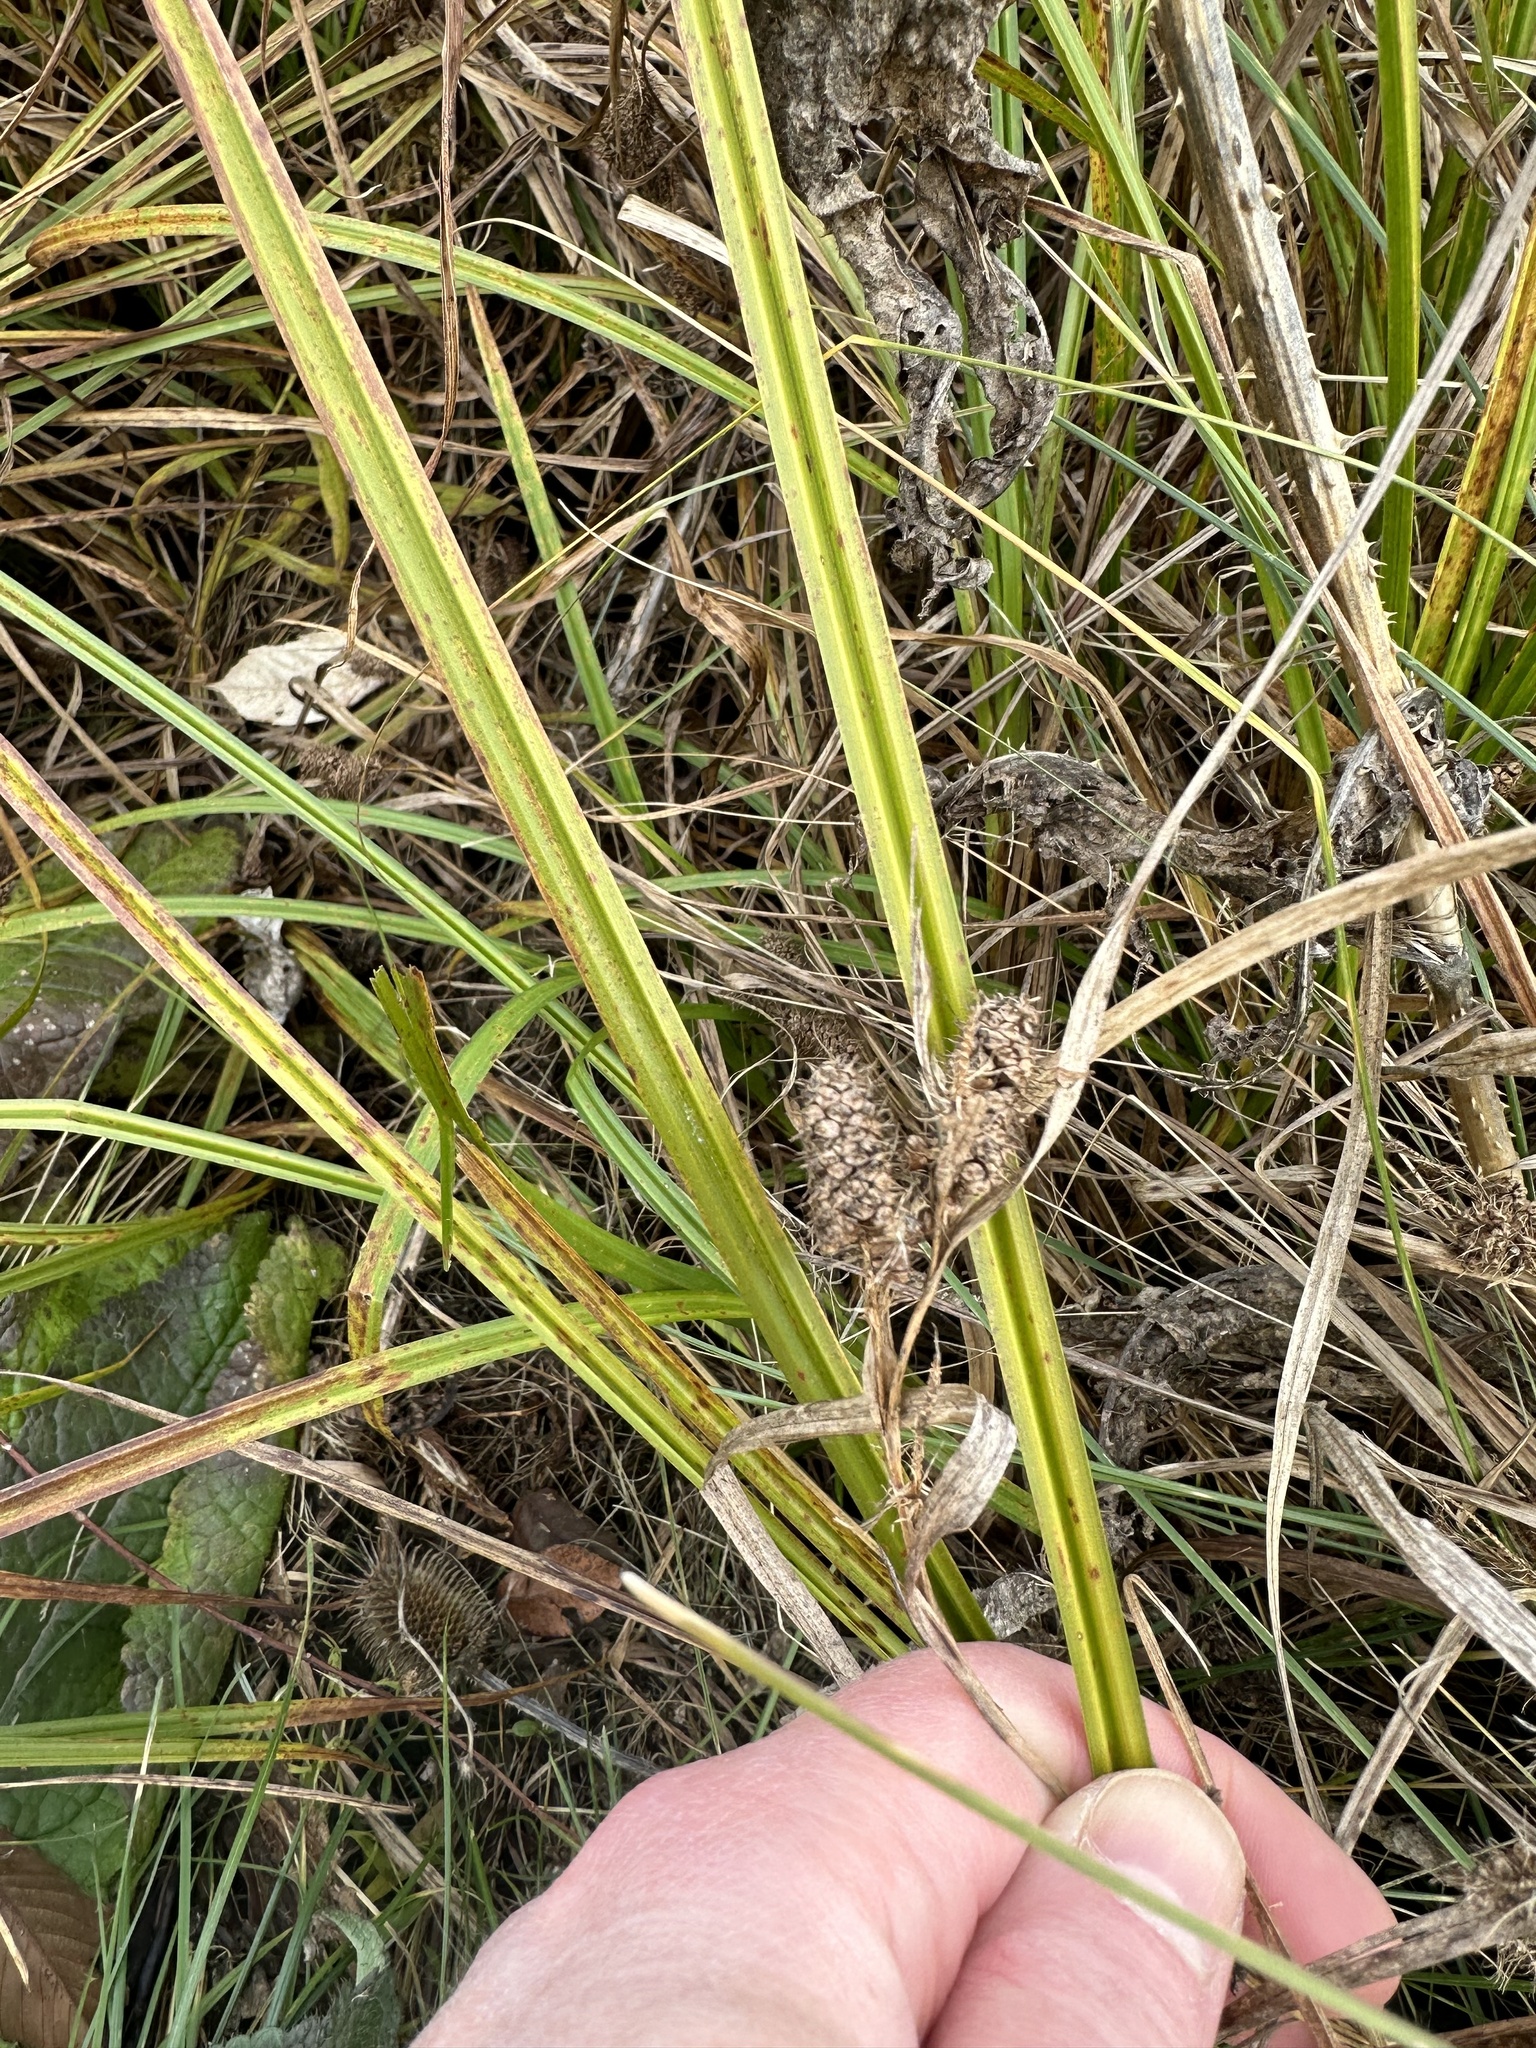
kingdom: Plantae
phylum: Tracheophyta
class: Liliopsida
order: Poales
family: Cyperaceae
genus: Carex
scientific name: Carex frankii
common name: Frank's sedge
